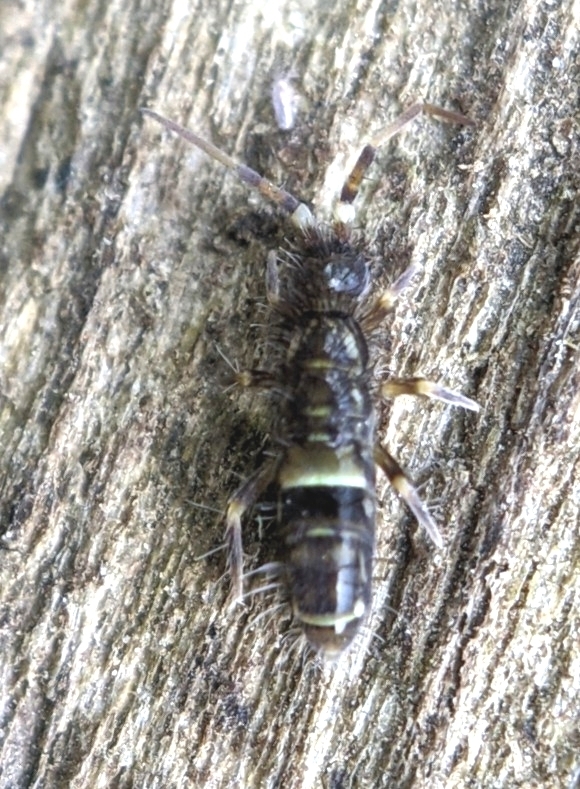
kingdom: Animalia
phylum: Arthropoda
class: Collembola
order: Entomobryomorpha
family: Orchesellidae
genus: Orchesella
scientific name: Orchesella cincta
